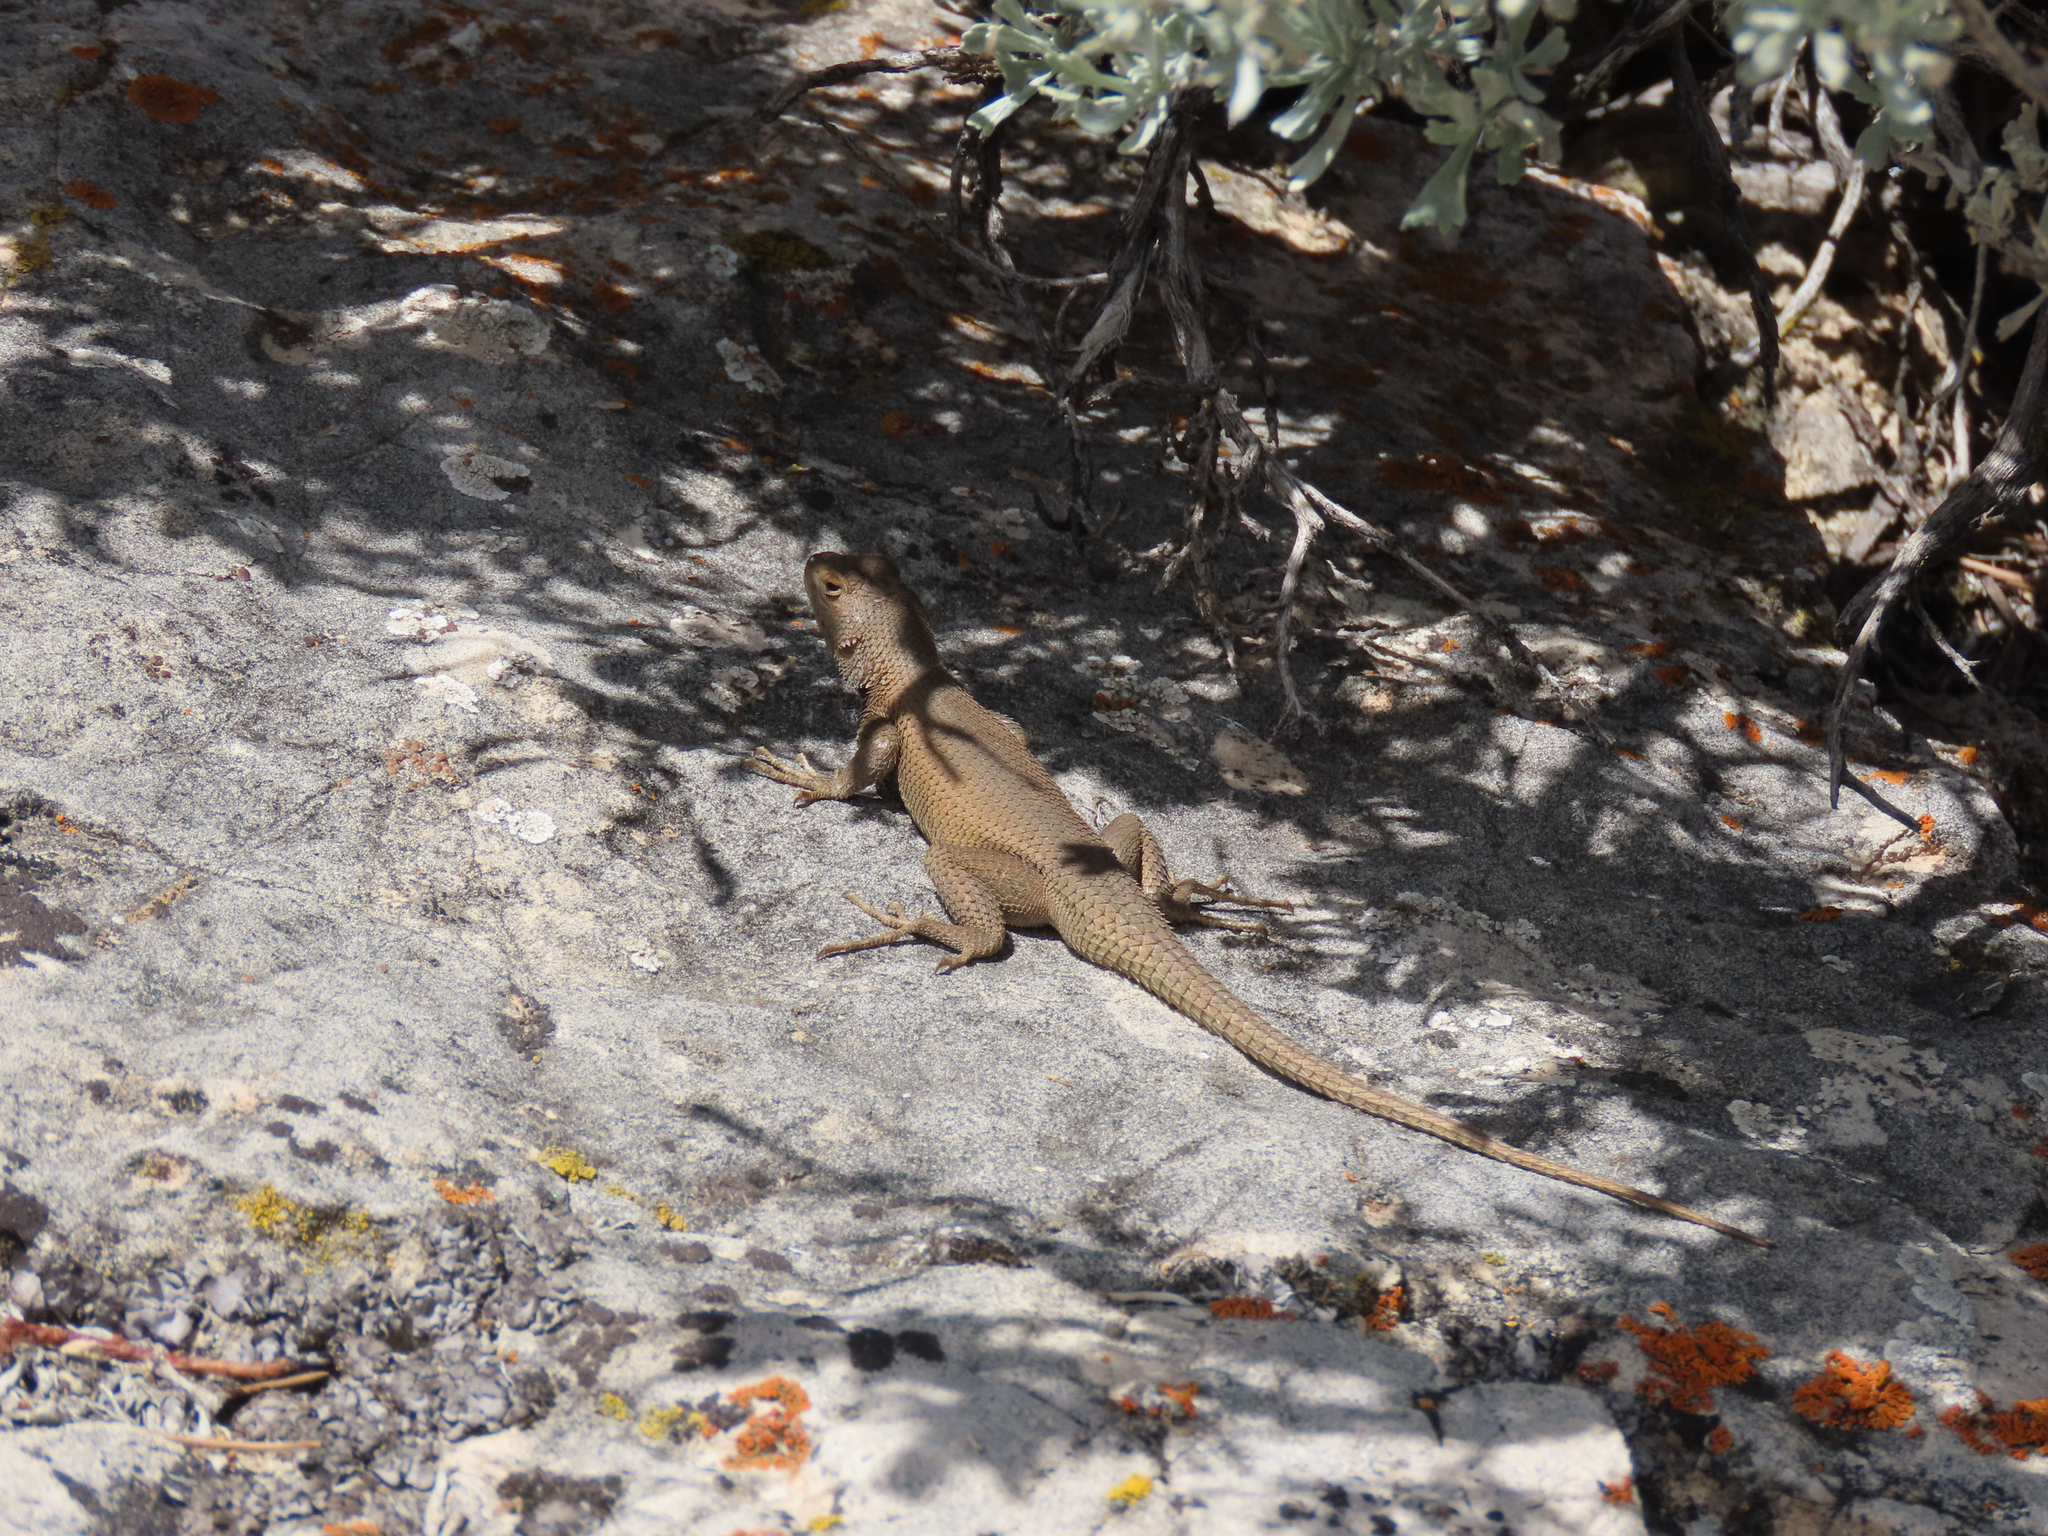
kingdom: Animalia
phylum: Chordata
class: Squamata
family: Phrynosomatidae
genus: Sceloporus
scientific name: Sceloporus tristichus
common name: Plateau fence lizard
